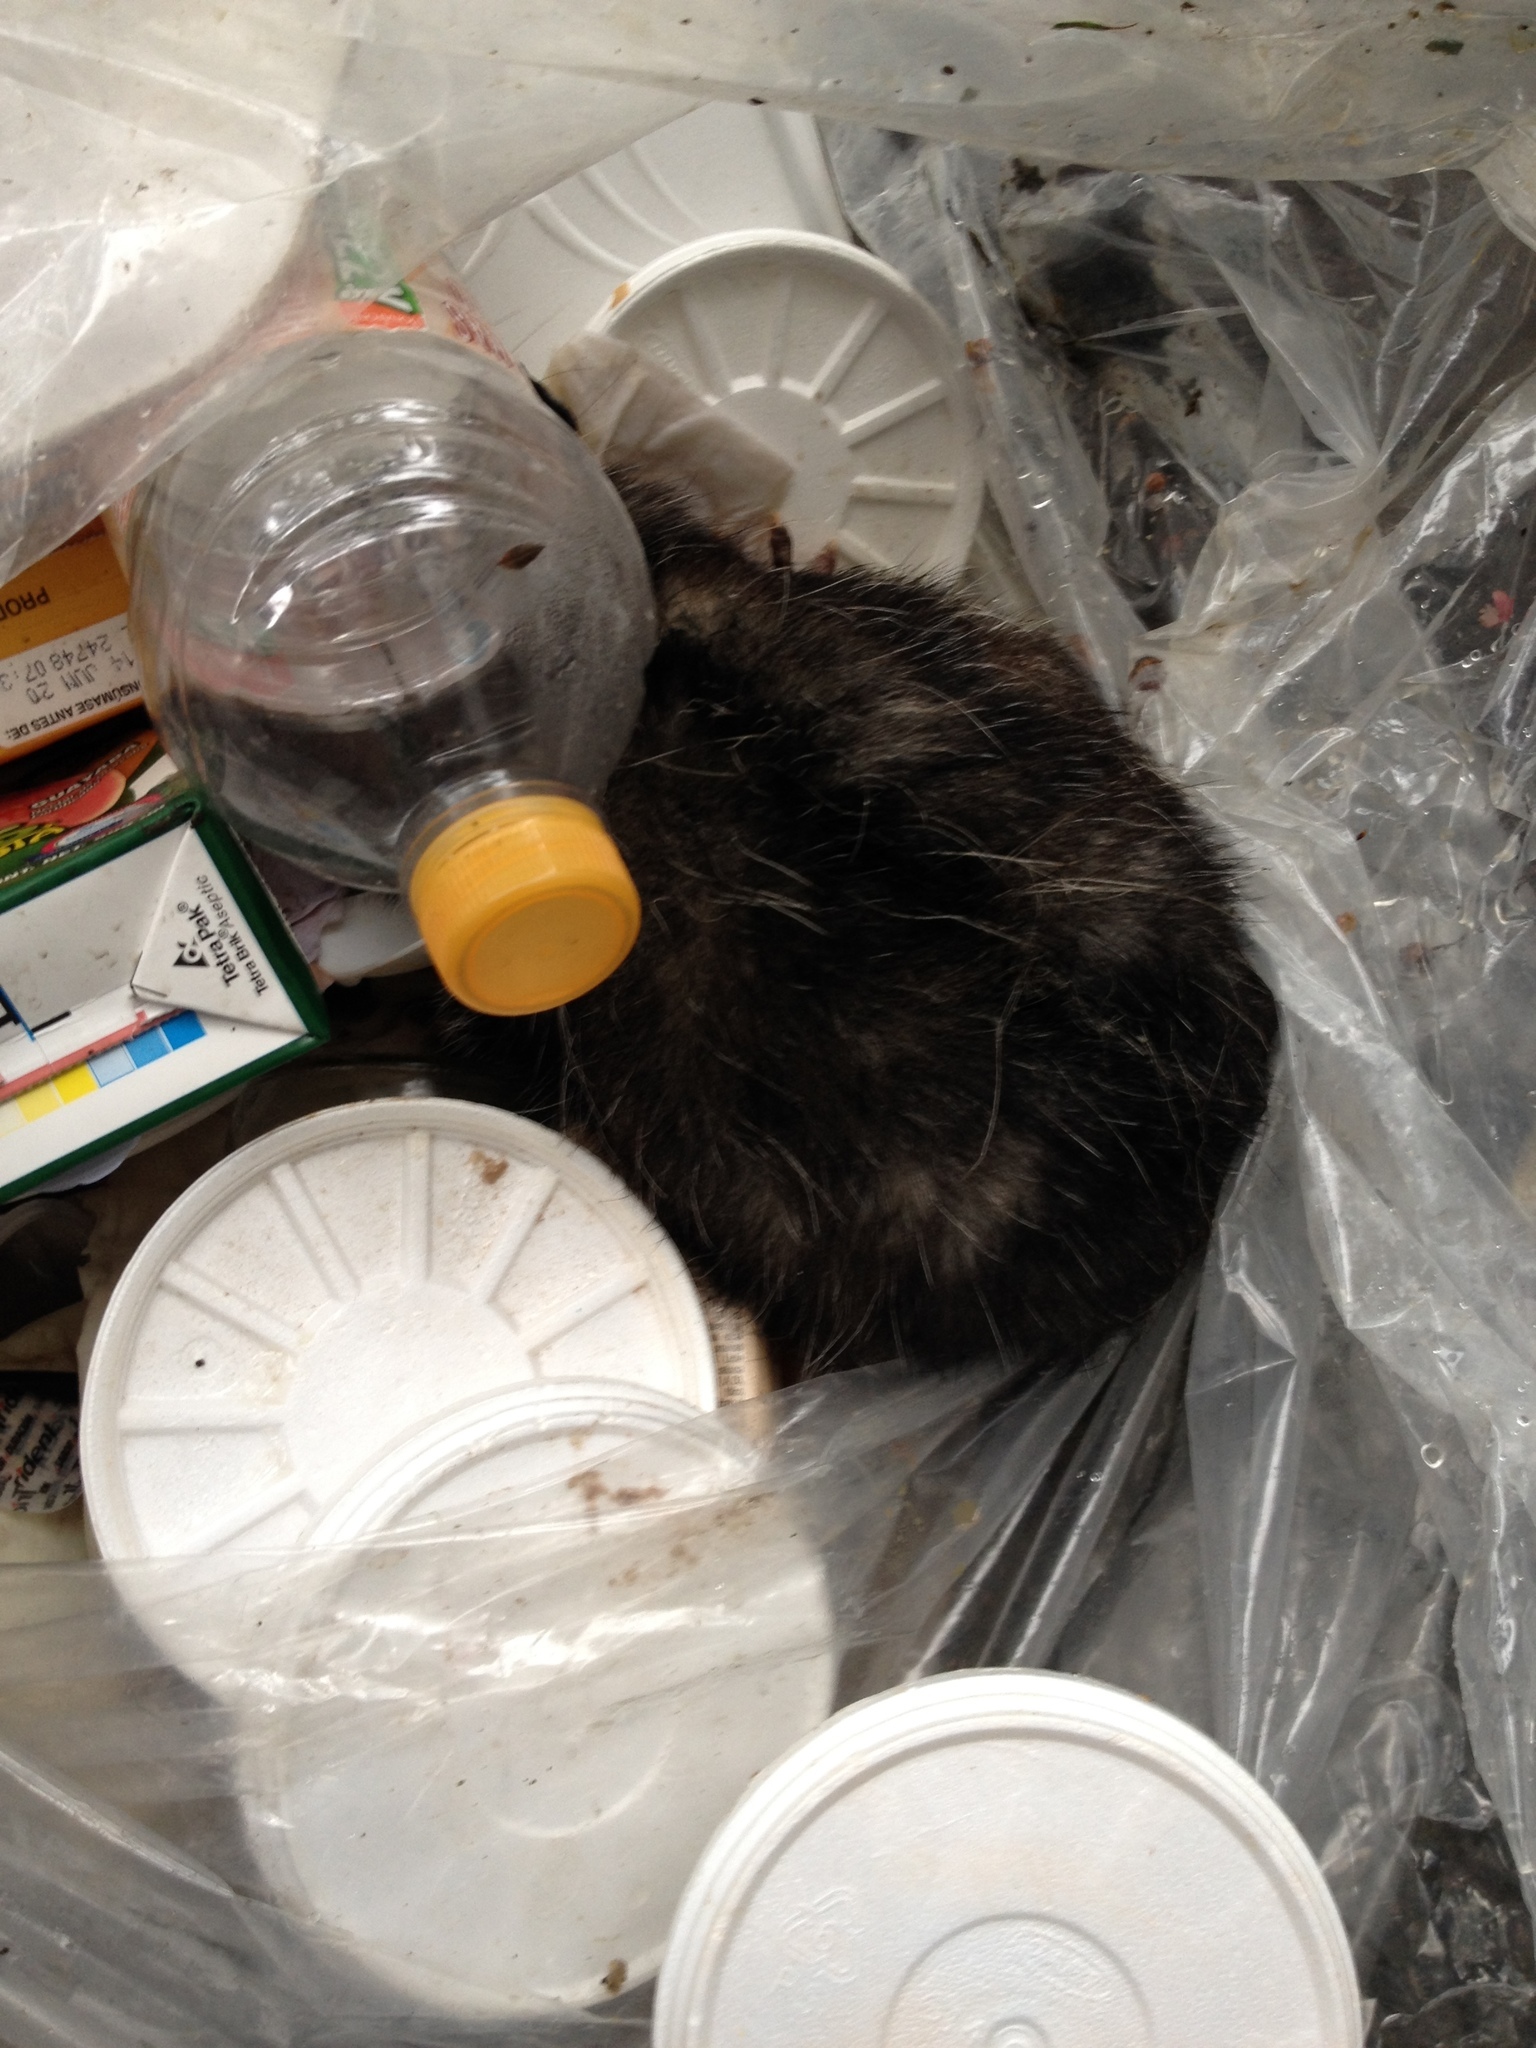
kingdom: Animalia
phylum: Chordata
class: Mammalia
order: Didelphimorphia
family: Didelphidae
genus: Didelphis
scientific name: Didelphis virginiana
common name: Virginia opossum
